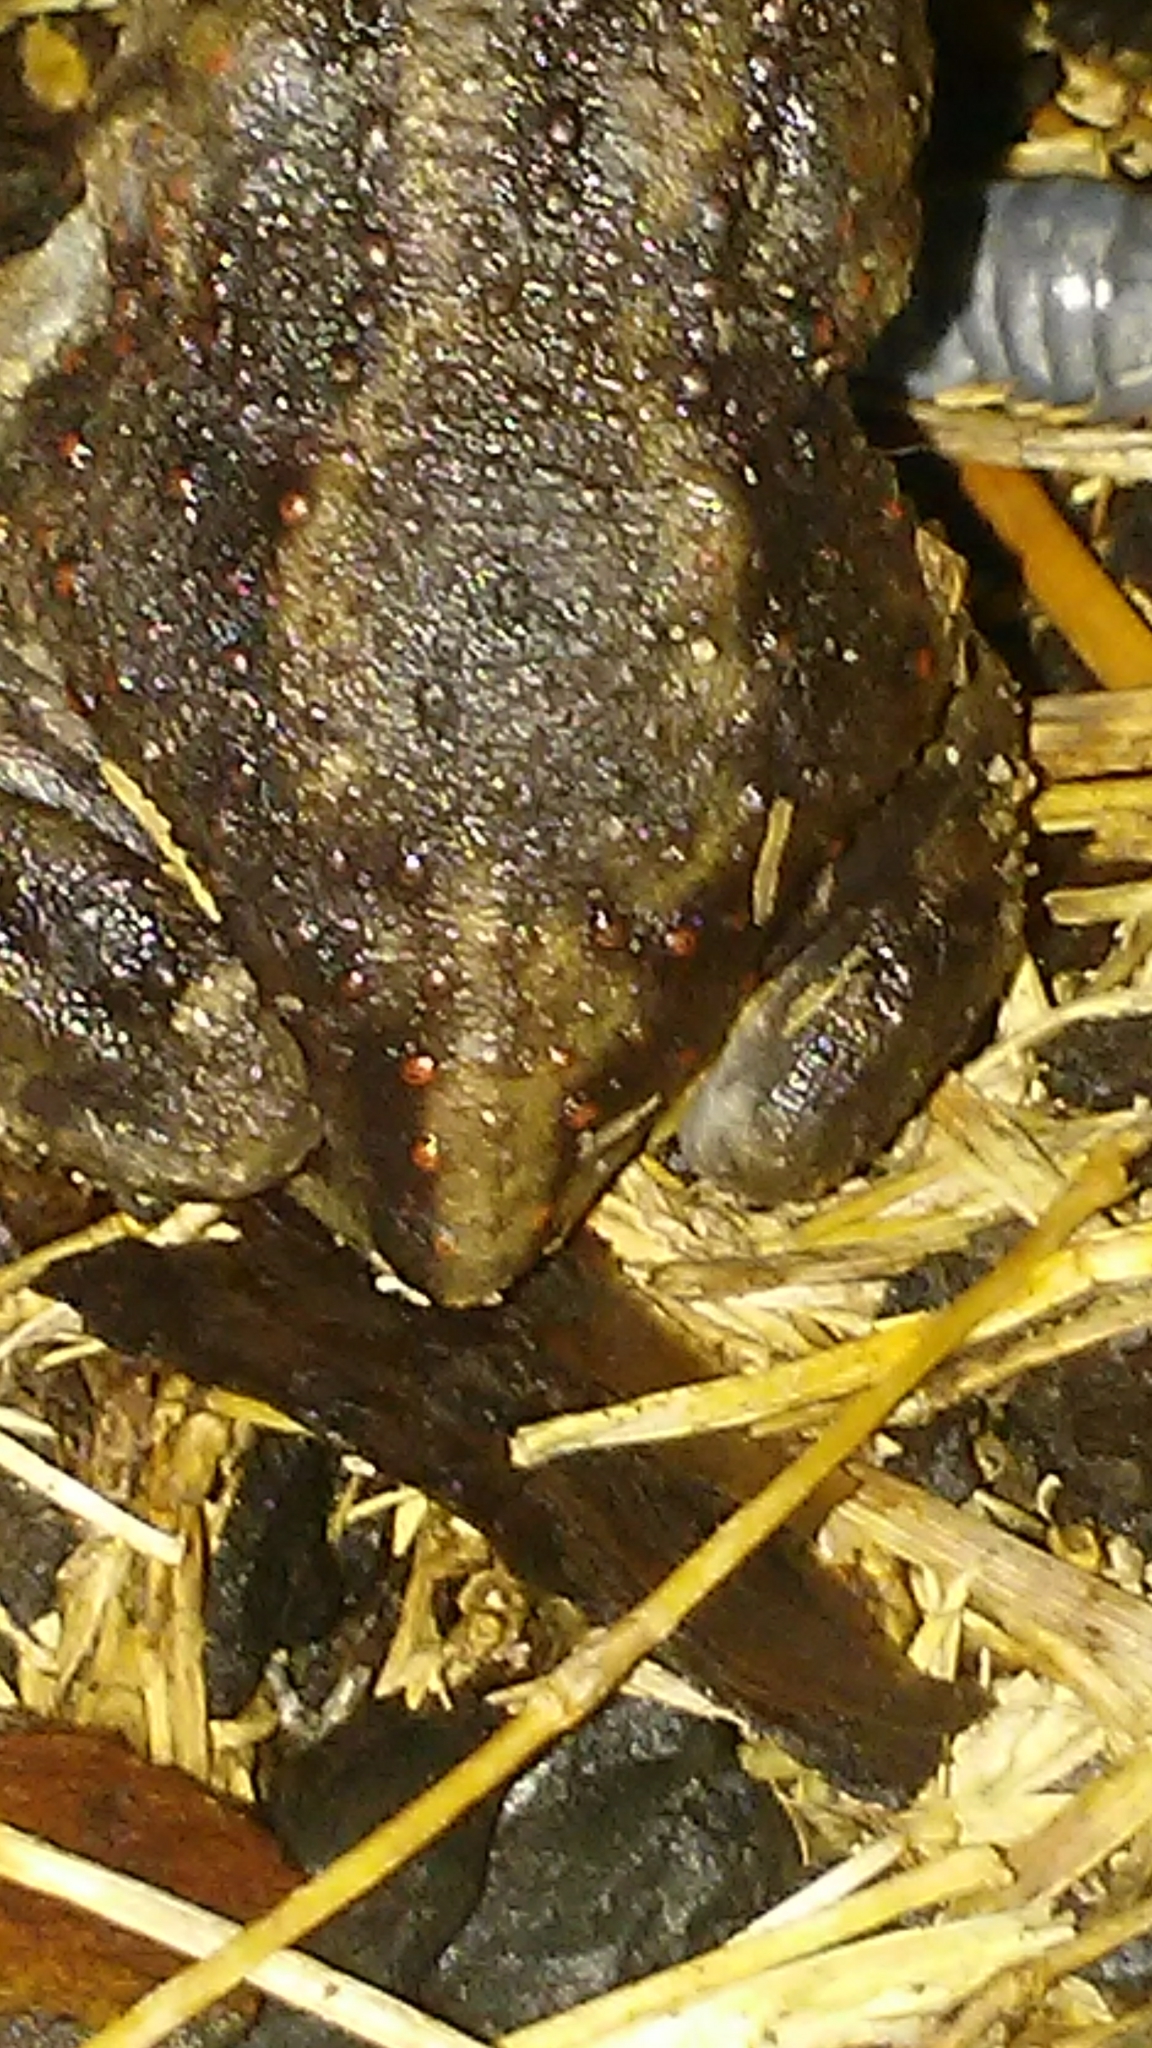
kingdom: Animalia
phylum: Chordata
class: Amphibia
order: Anura
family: Scaphiopodidae
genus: Scaphiopus
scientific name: Scaphiopus holbrookii
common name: Eastern spadefoot toad
